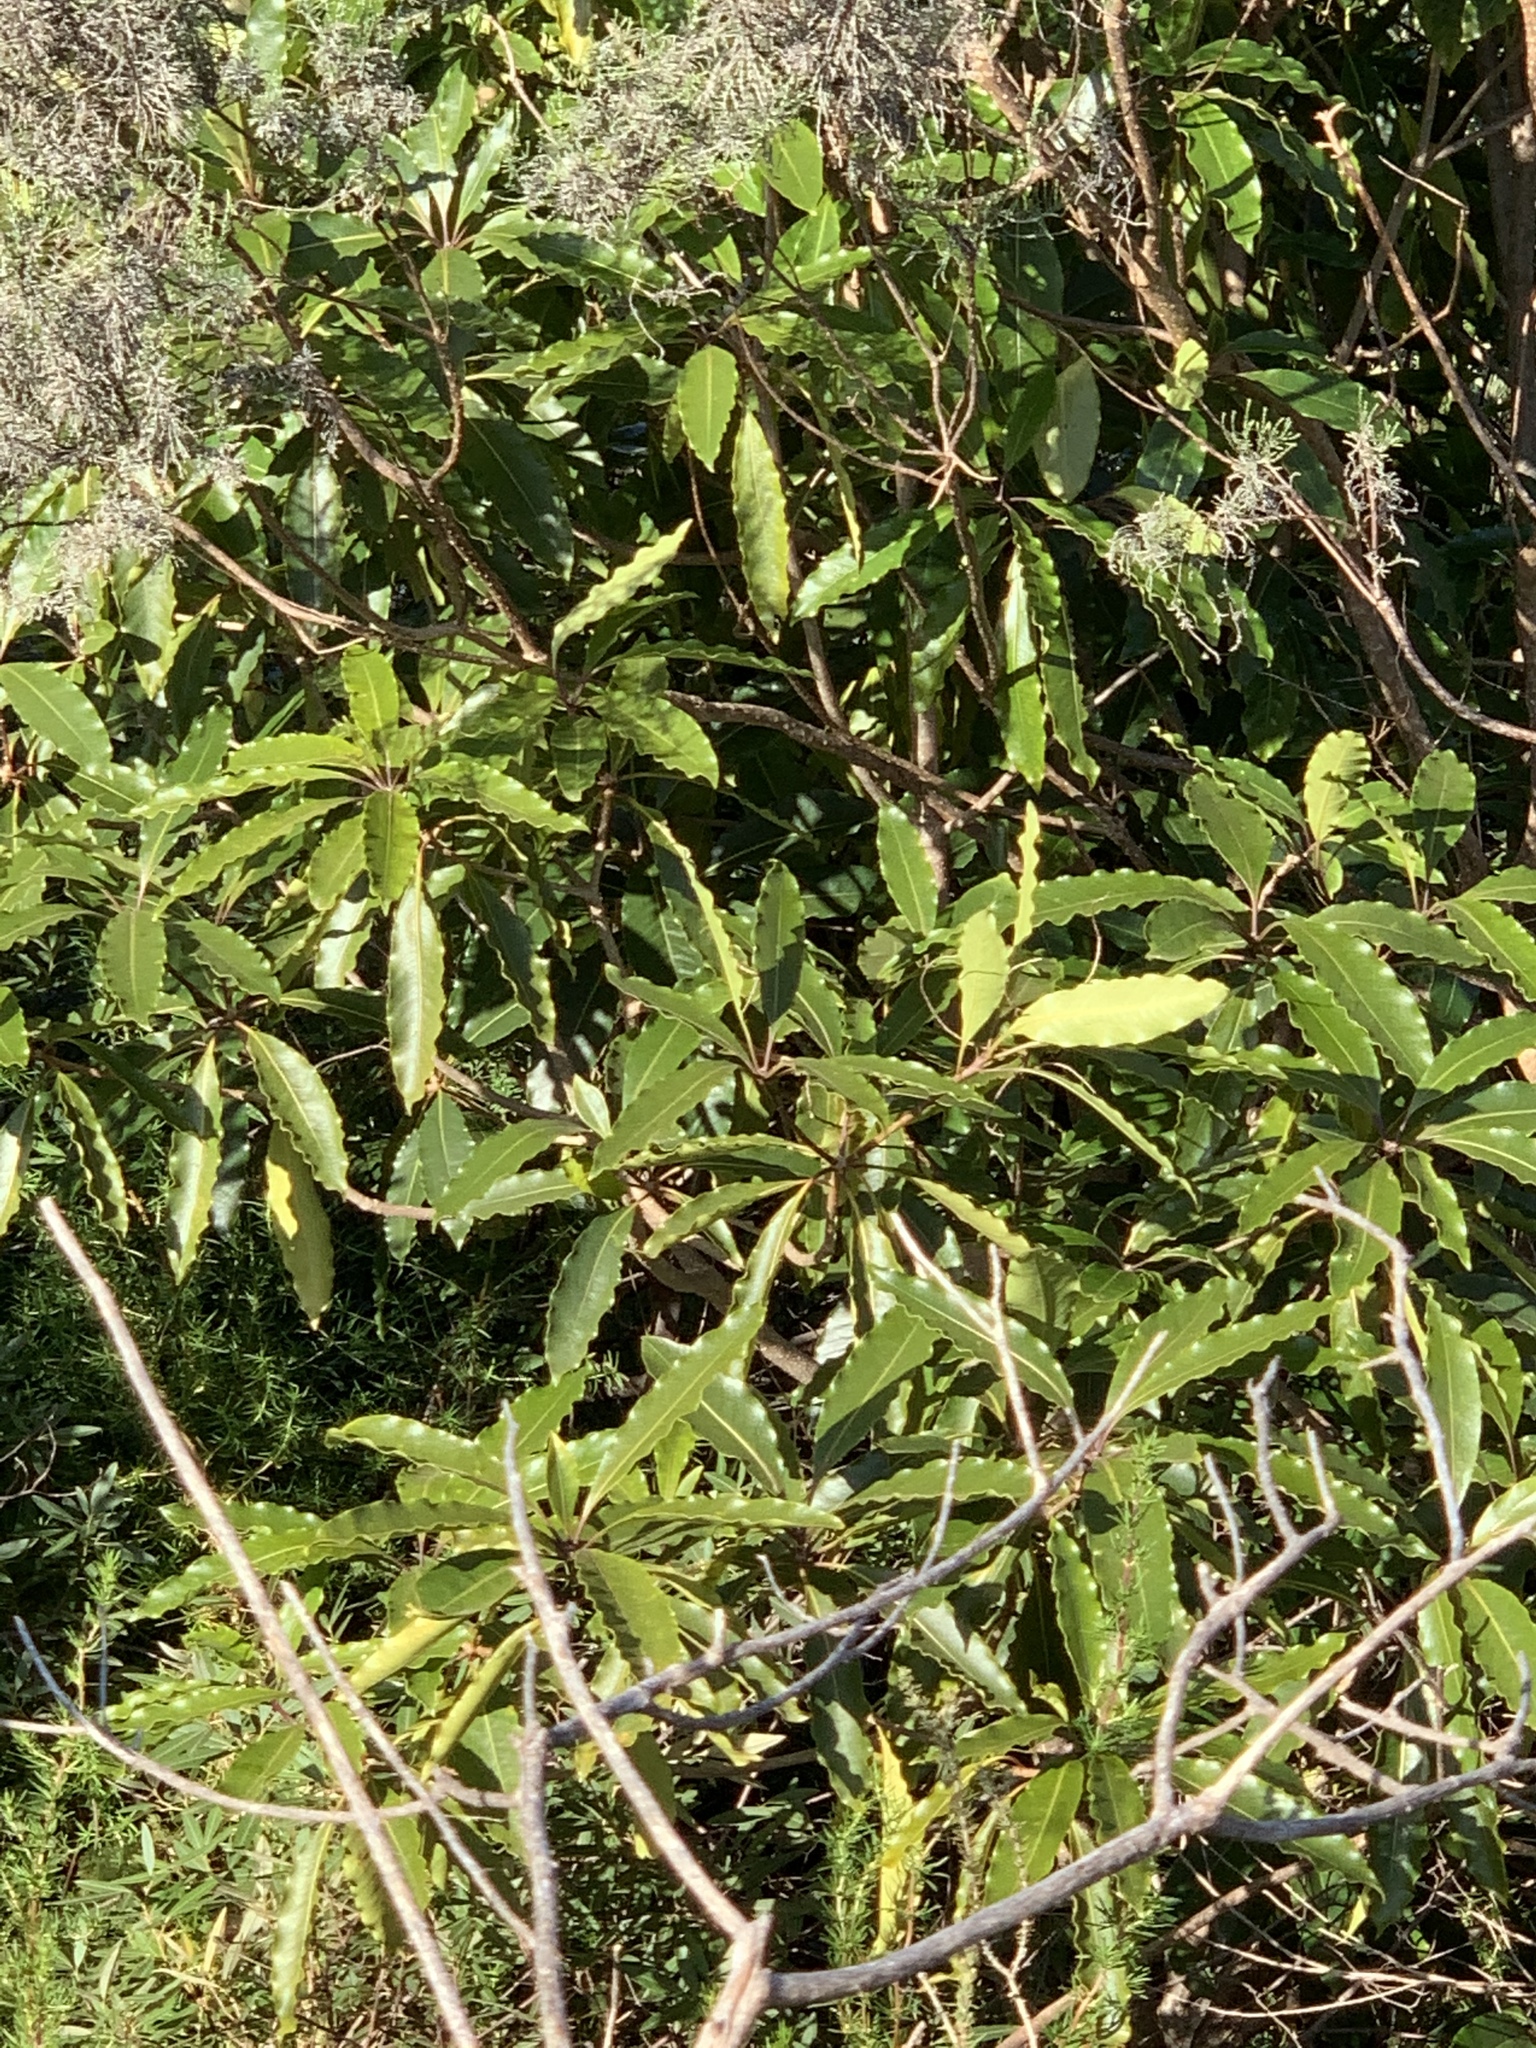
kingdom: Plantae
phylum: Tracheophyta
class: Magnoliopsida
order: Apiales
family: Pittosporaceae
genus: Pittosporum
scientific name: Pittosporum undulatum
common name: Australian cheesewood
